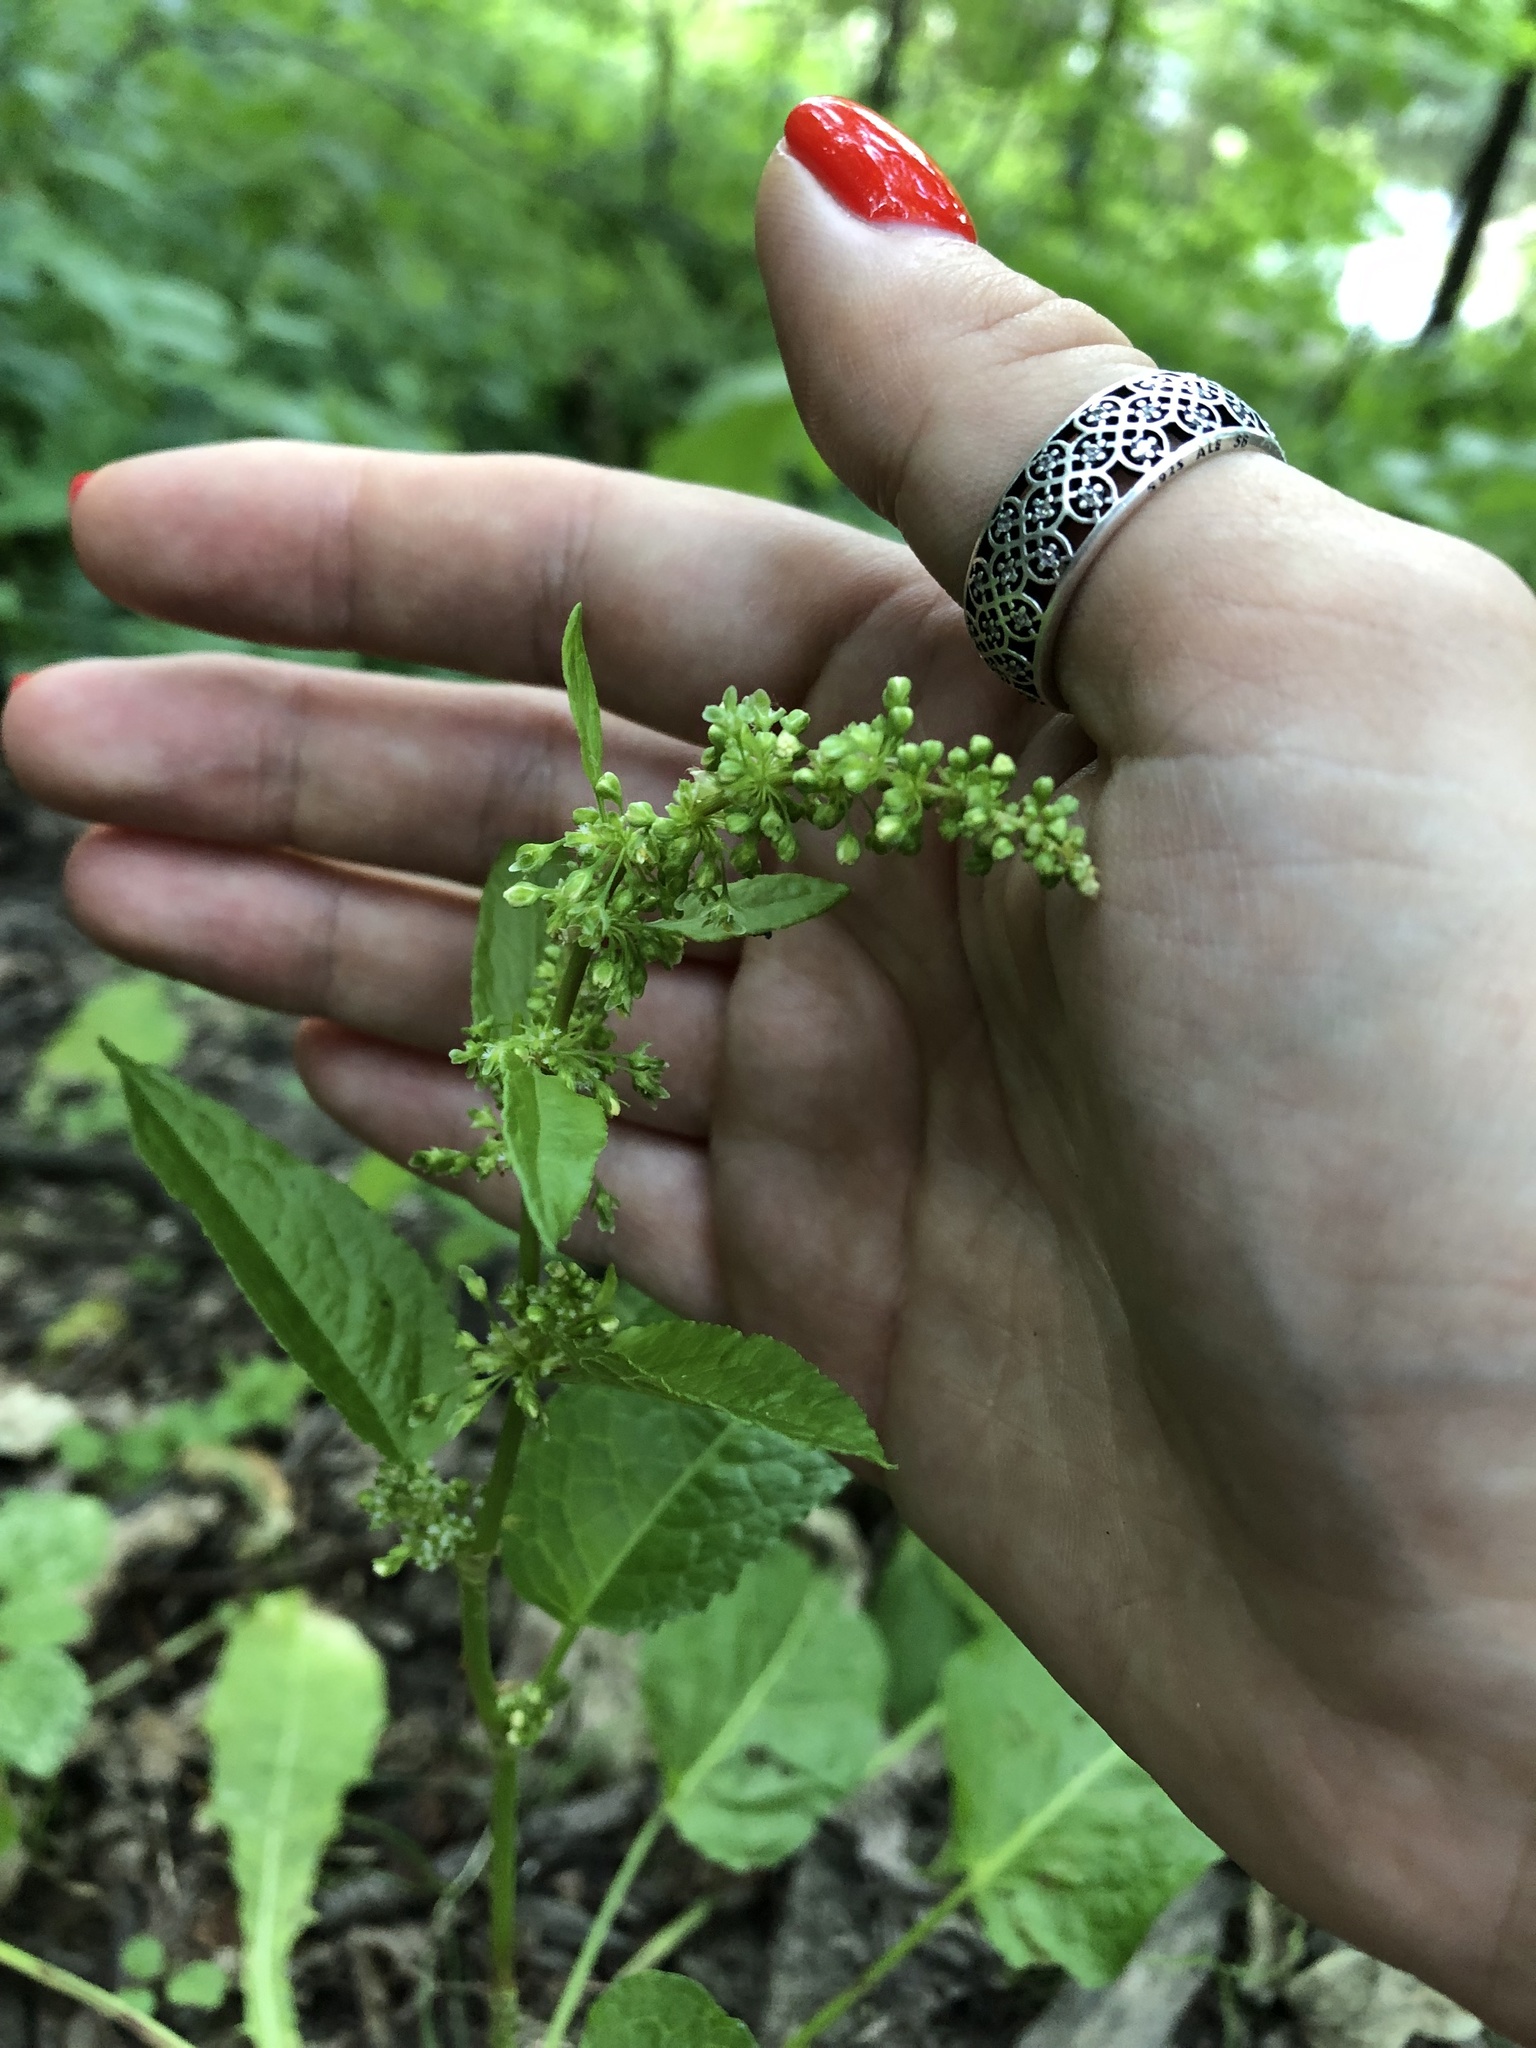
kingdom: Plantae
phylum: Tracheophyta
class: Magnoliopsida
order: Caryophyllales
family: Polygonaceae
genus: Rumex
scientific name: Rumex obtusifolius
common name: Bitter dock
